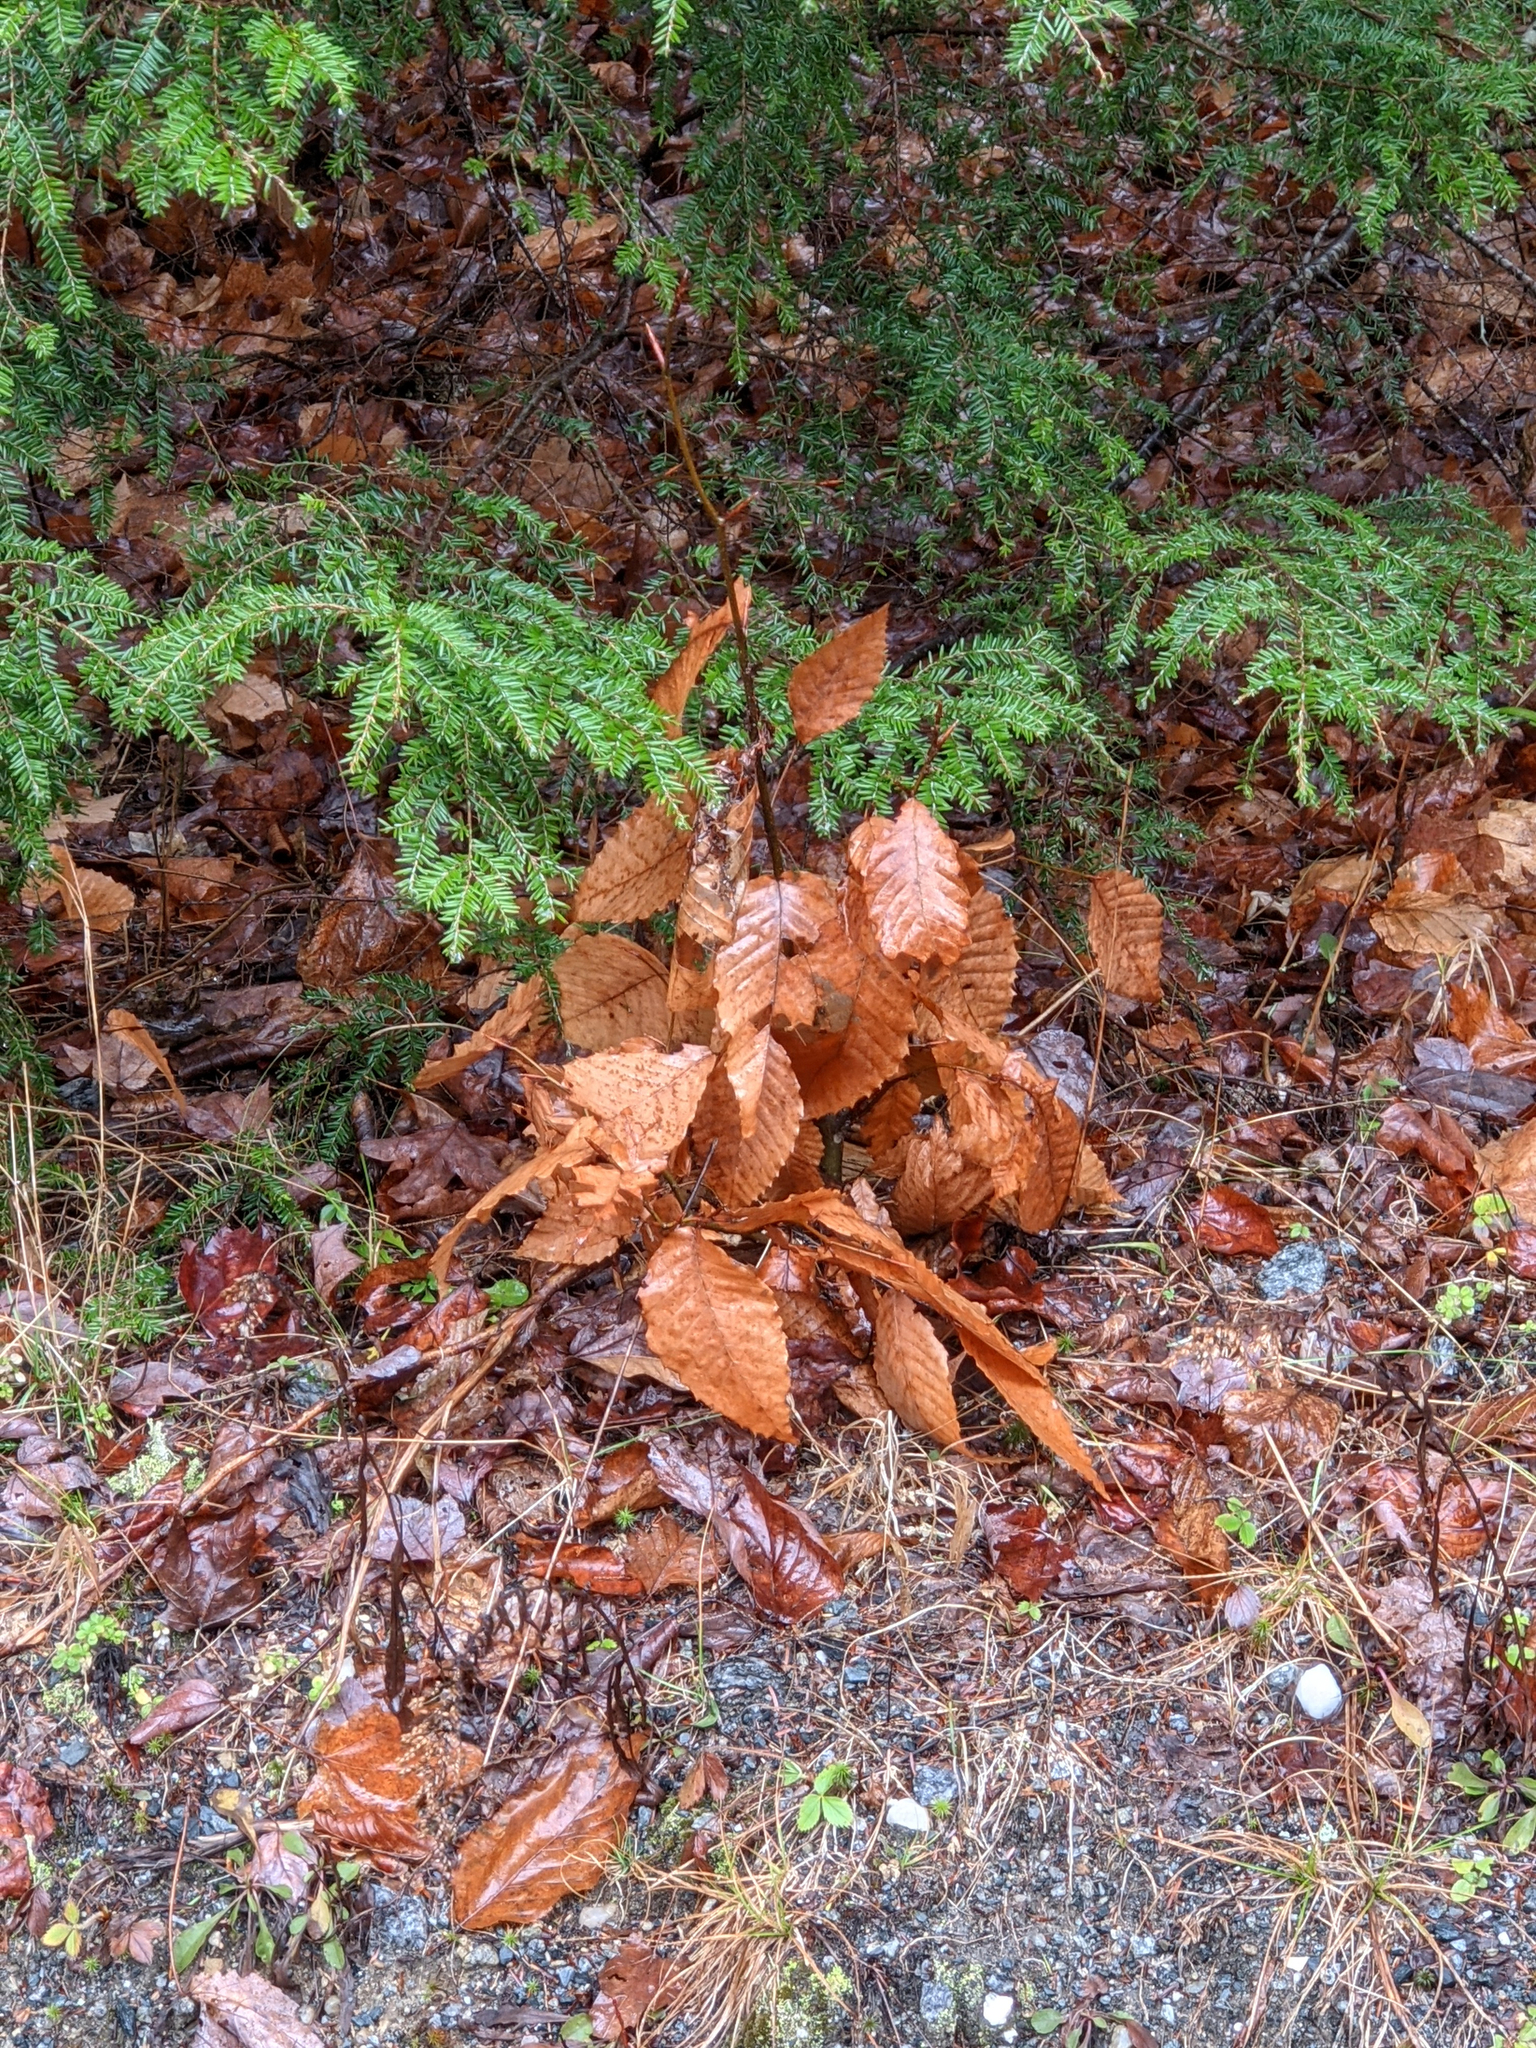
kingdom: Plantae
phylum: Tracheophyta
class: Magnoliopsida
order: Fagales
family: Fagaceae
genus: Fagus
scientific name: Fagus grandifolia
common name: American beech
